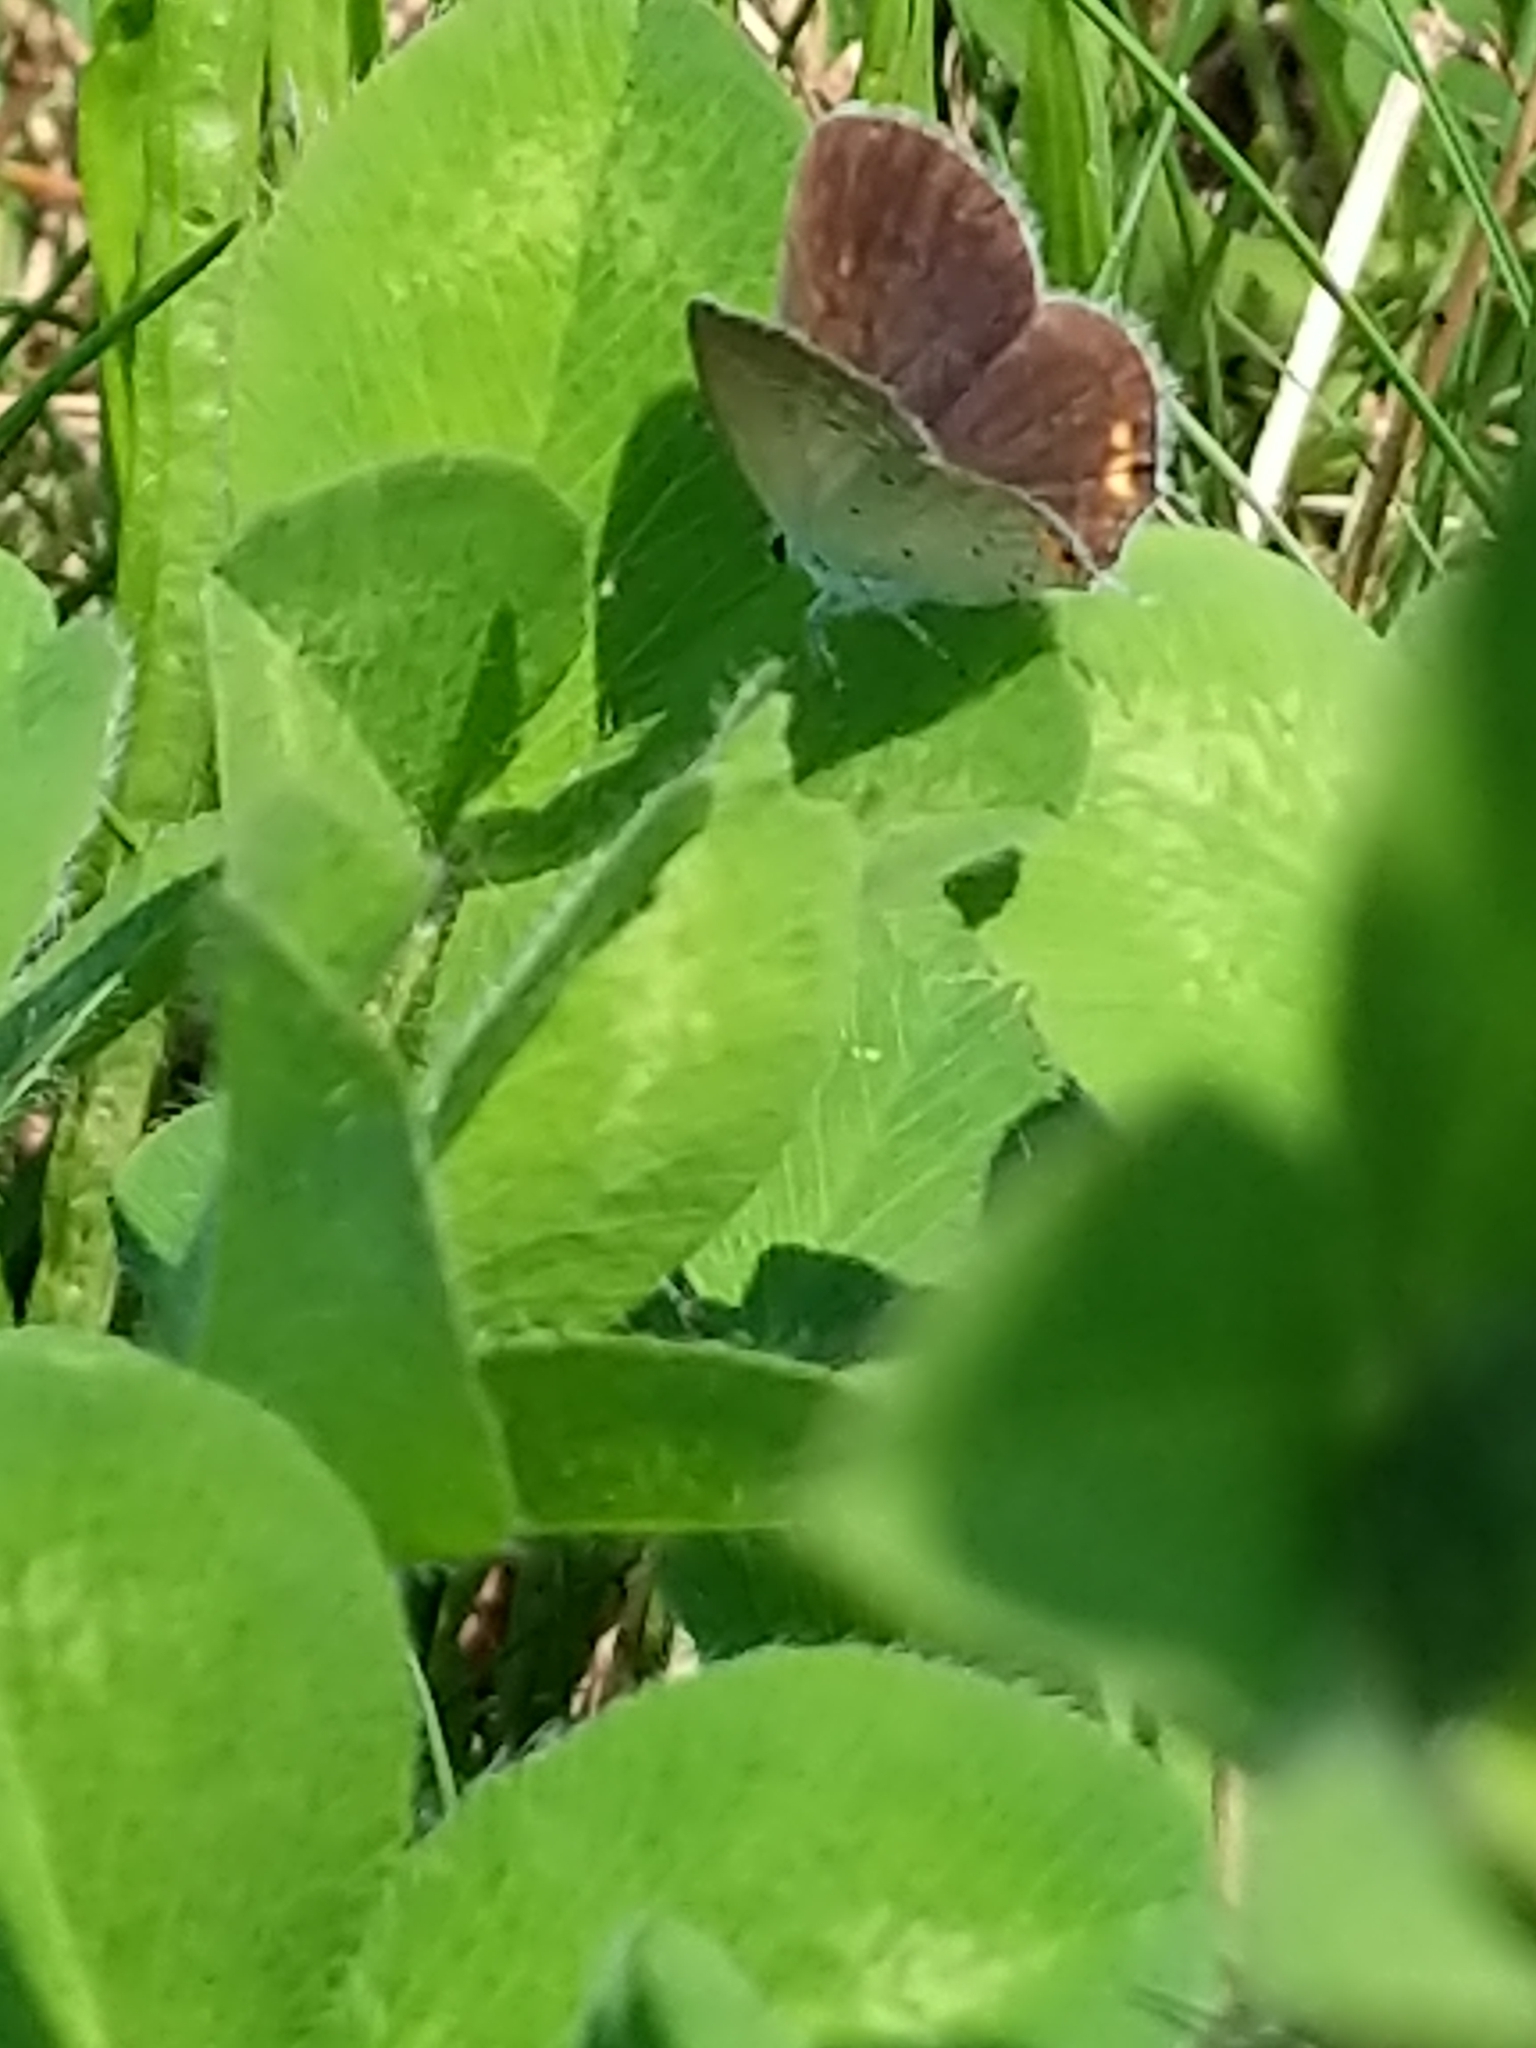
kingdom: Animalia
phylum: Arthropoda
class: Insecta
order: Lepidoptera
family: Lycaenidae
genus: Elkalyce
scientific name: Elkalyce comyntas
